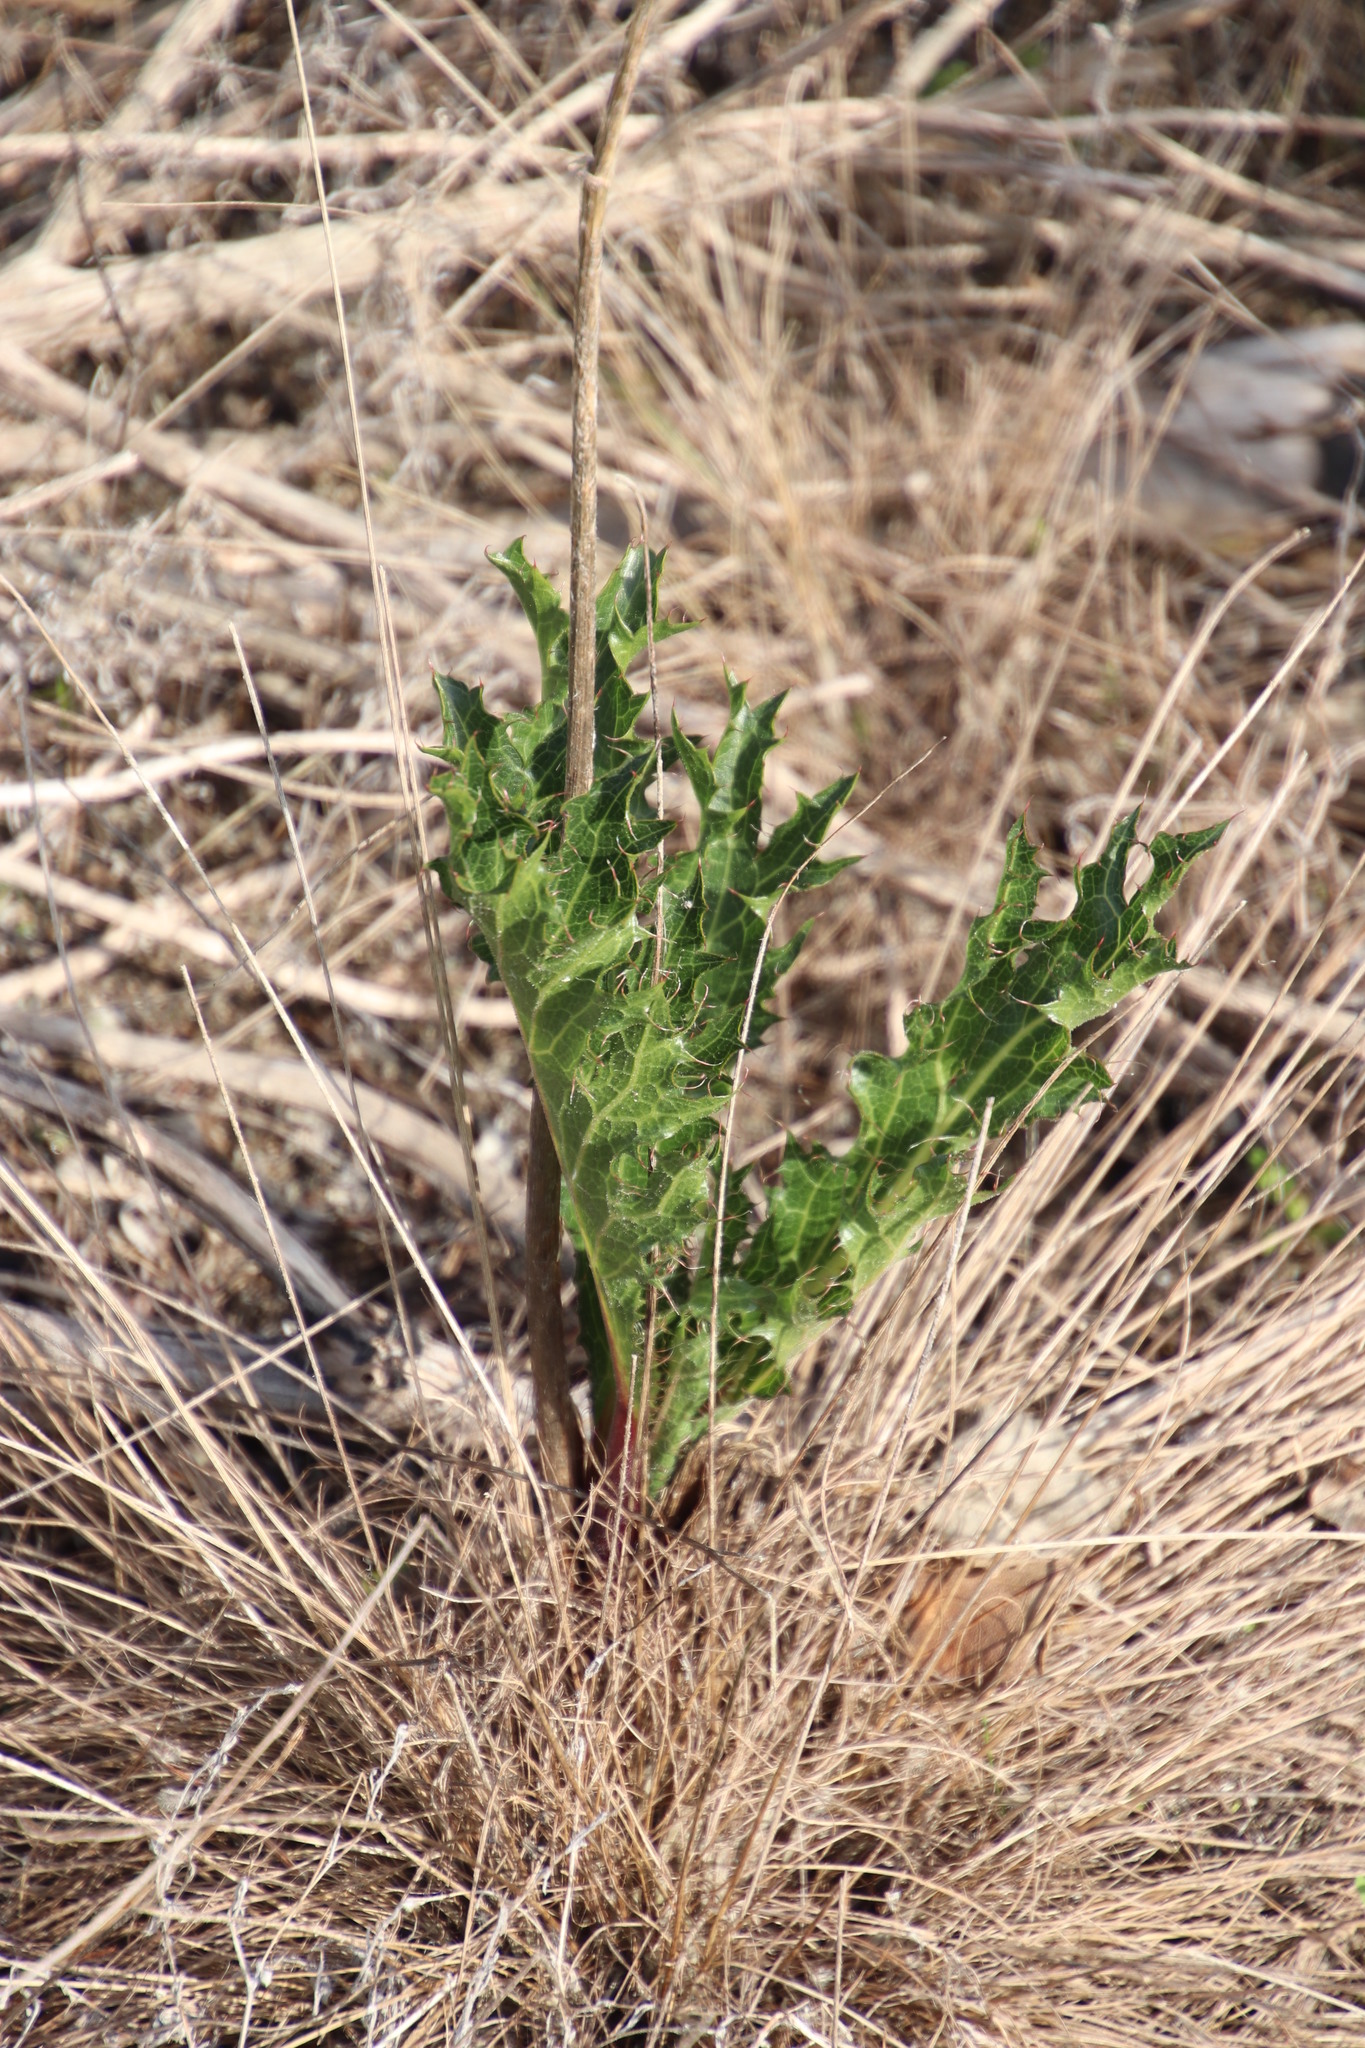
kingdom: Plantae
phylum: Tracheophyta
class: Magnoliopsida
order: Apiales
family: Apiaceae
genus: Lichtensteinia
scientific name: Lichtensteinia lacera
